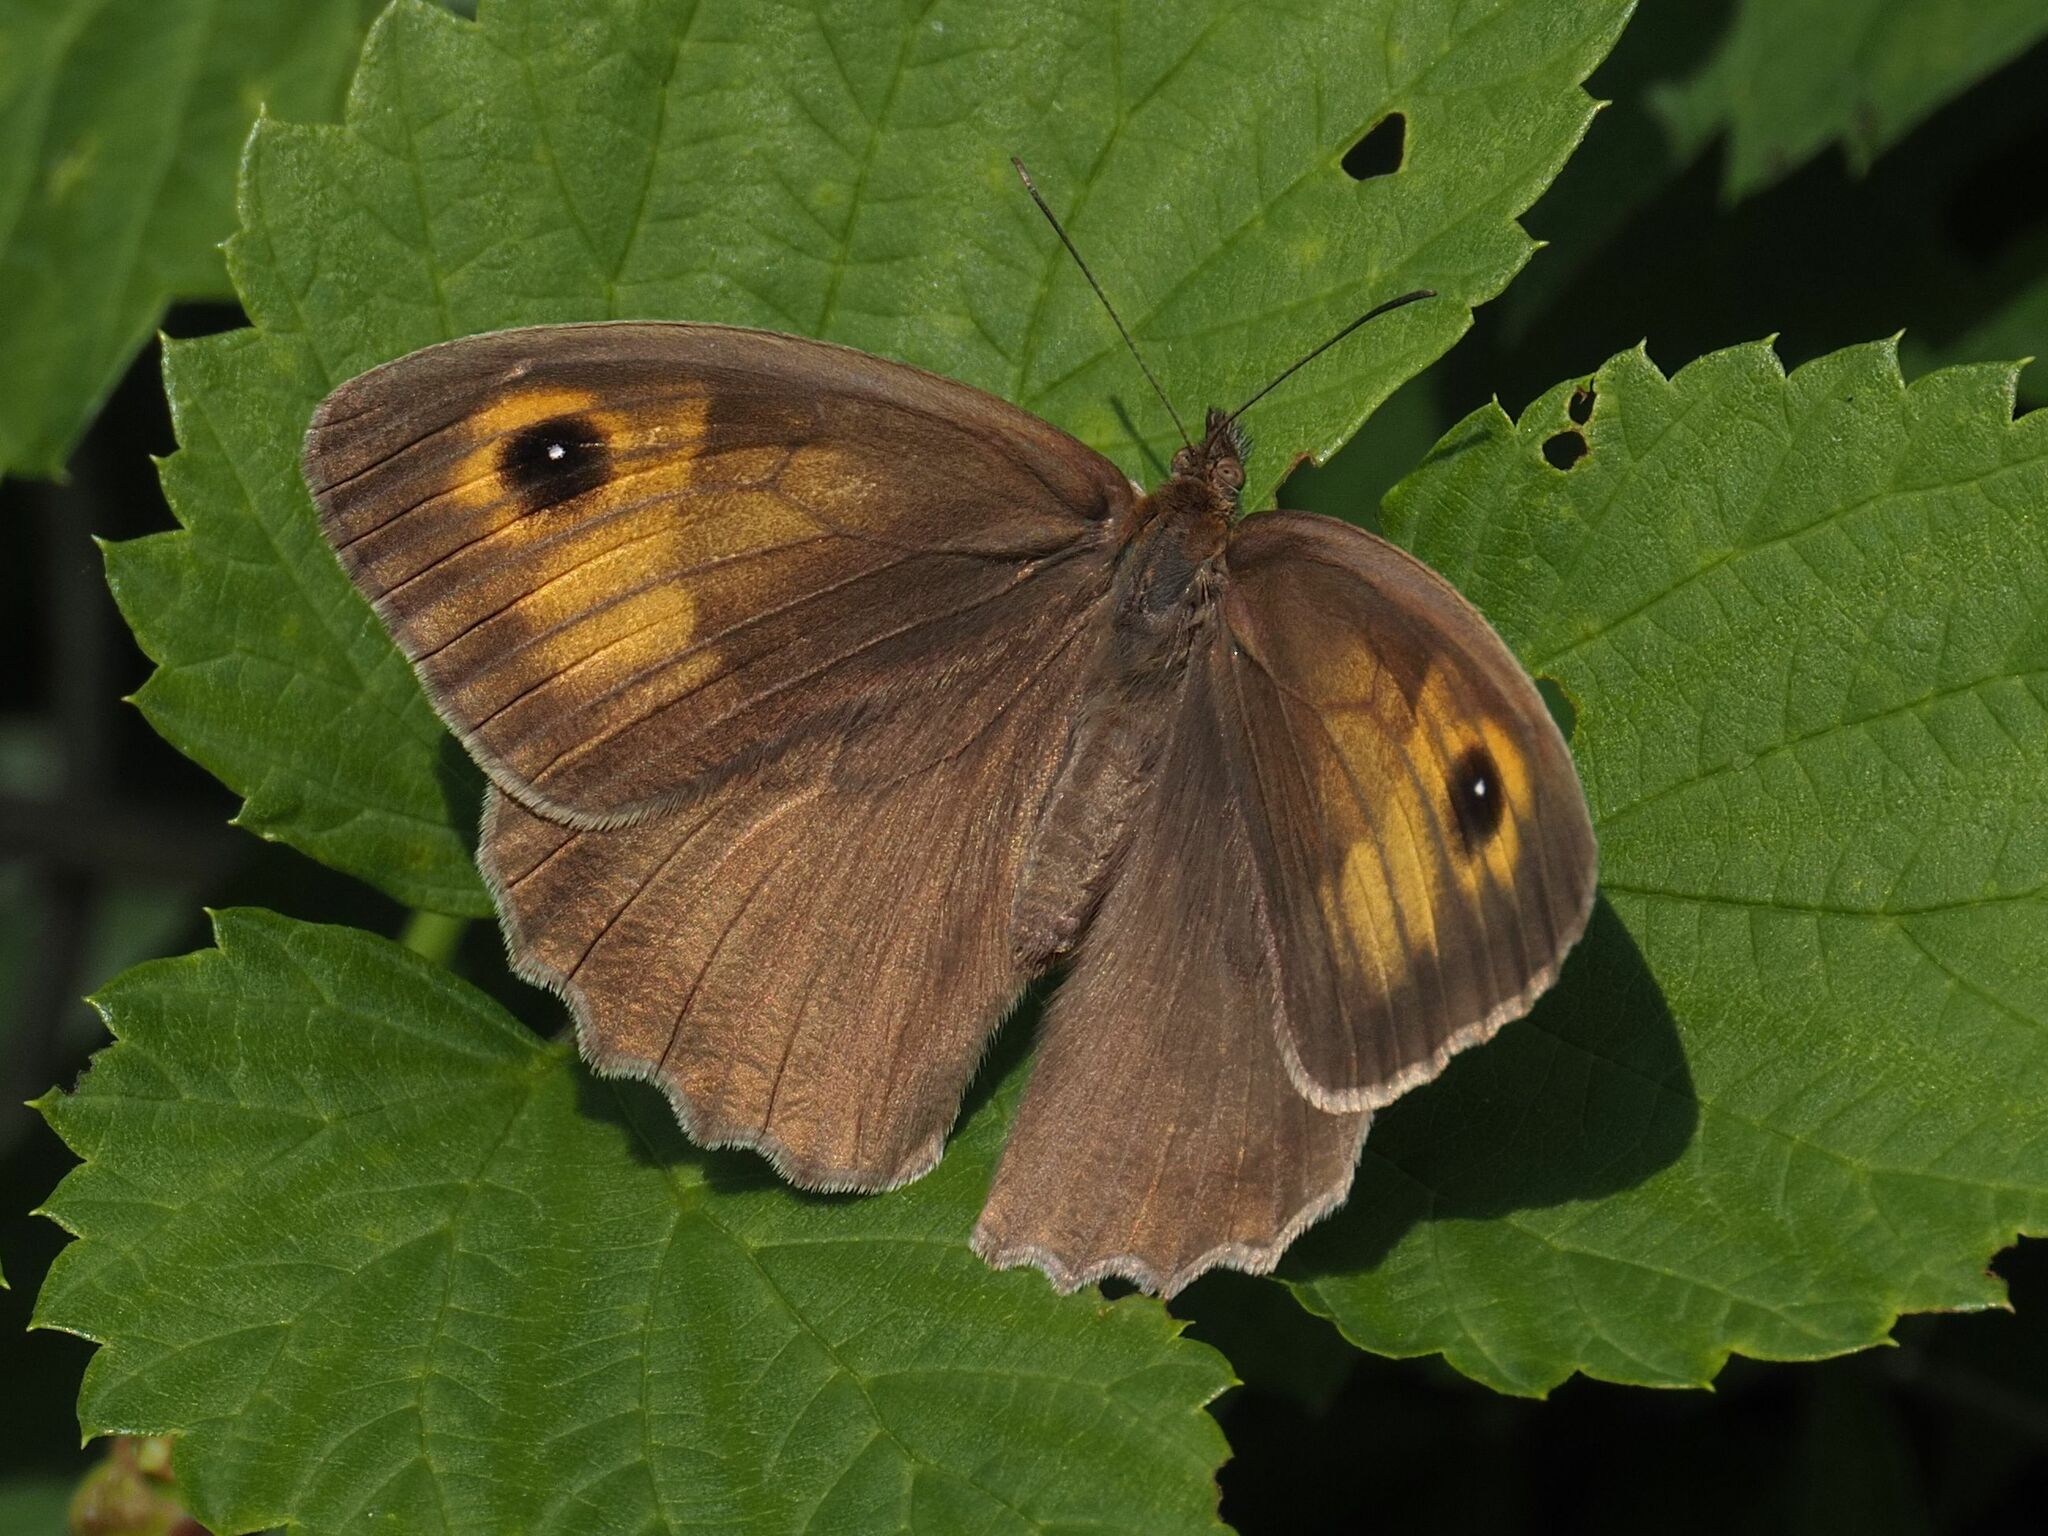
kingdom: Animalia
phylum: Arthropoda
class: Insecta
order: Lepidoptera
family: Nymphalidae
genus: Maniola
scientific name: Maniola jurtina
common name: Meadow brown
